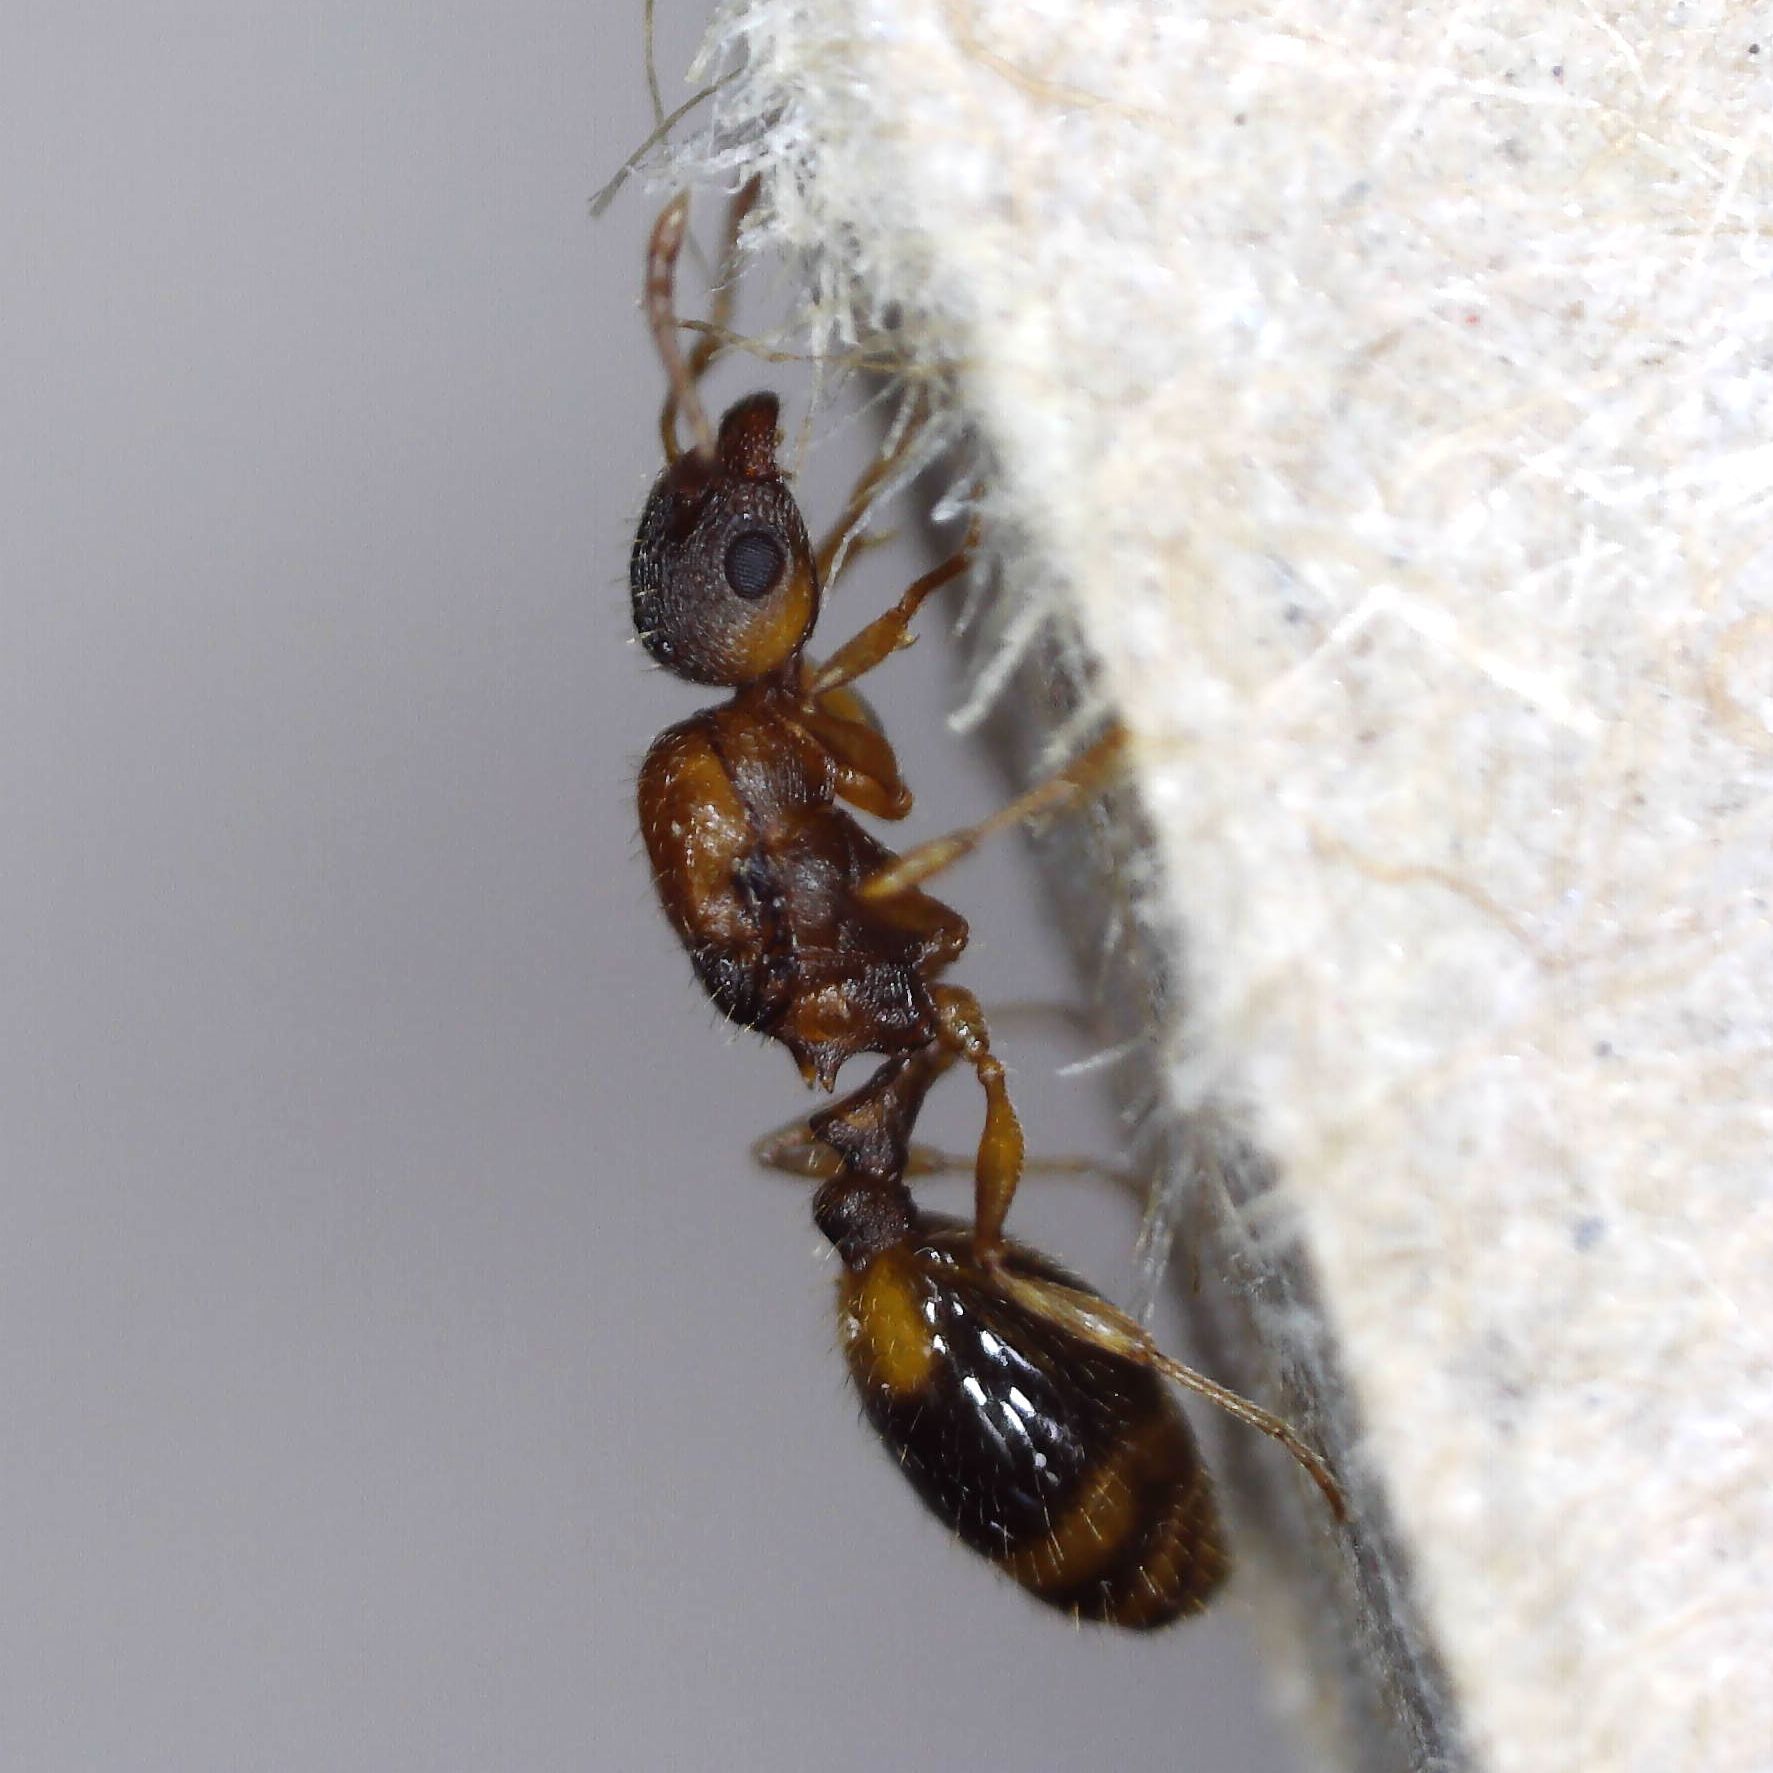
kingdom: Animalia
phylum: Arthropoda
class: Insecta
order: Hymenoptera
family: Formicidae
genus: Leptothorax
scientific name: Leptothorax nylanderi
